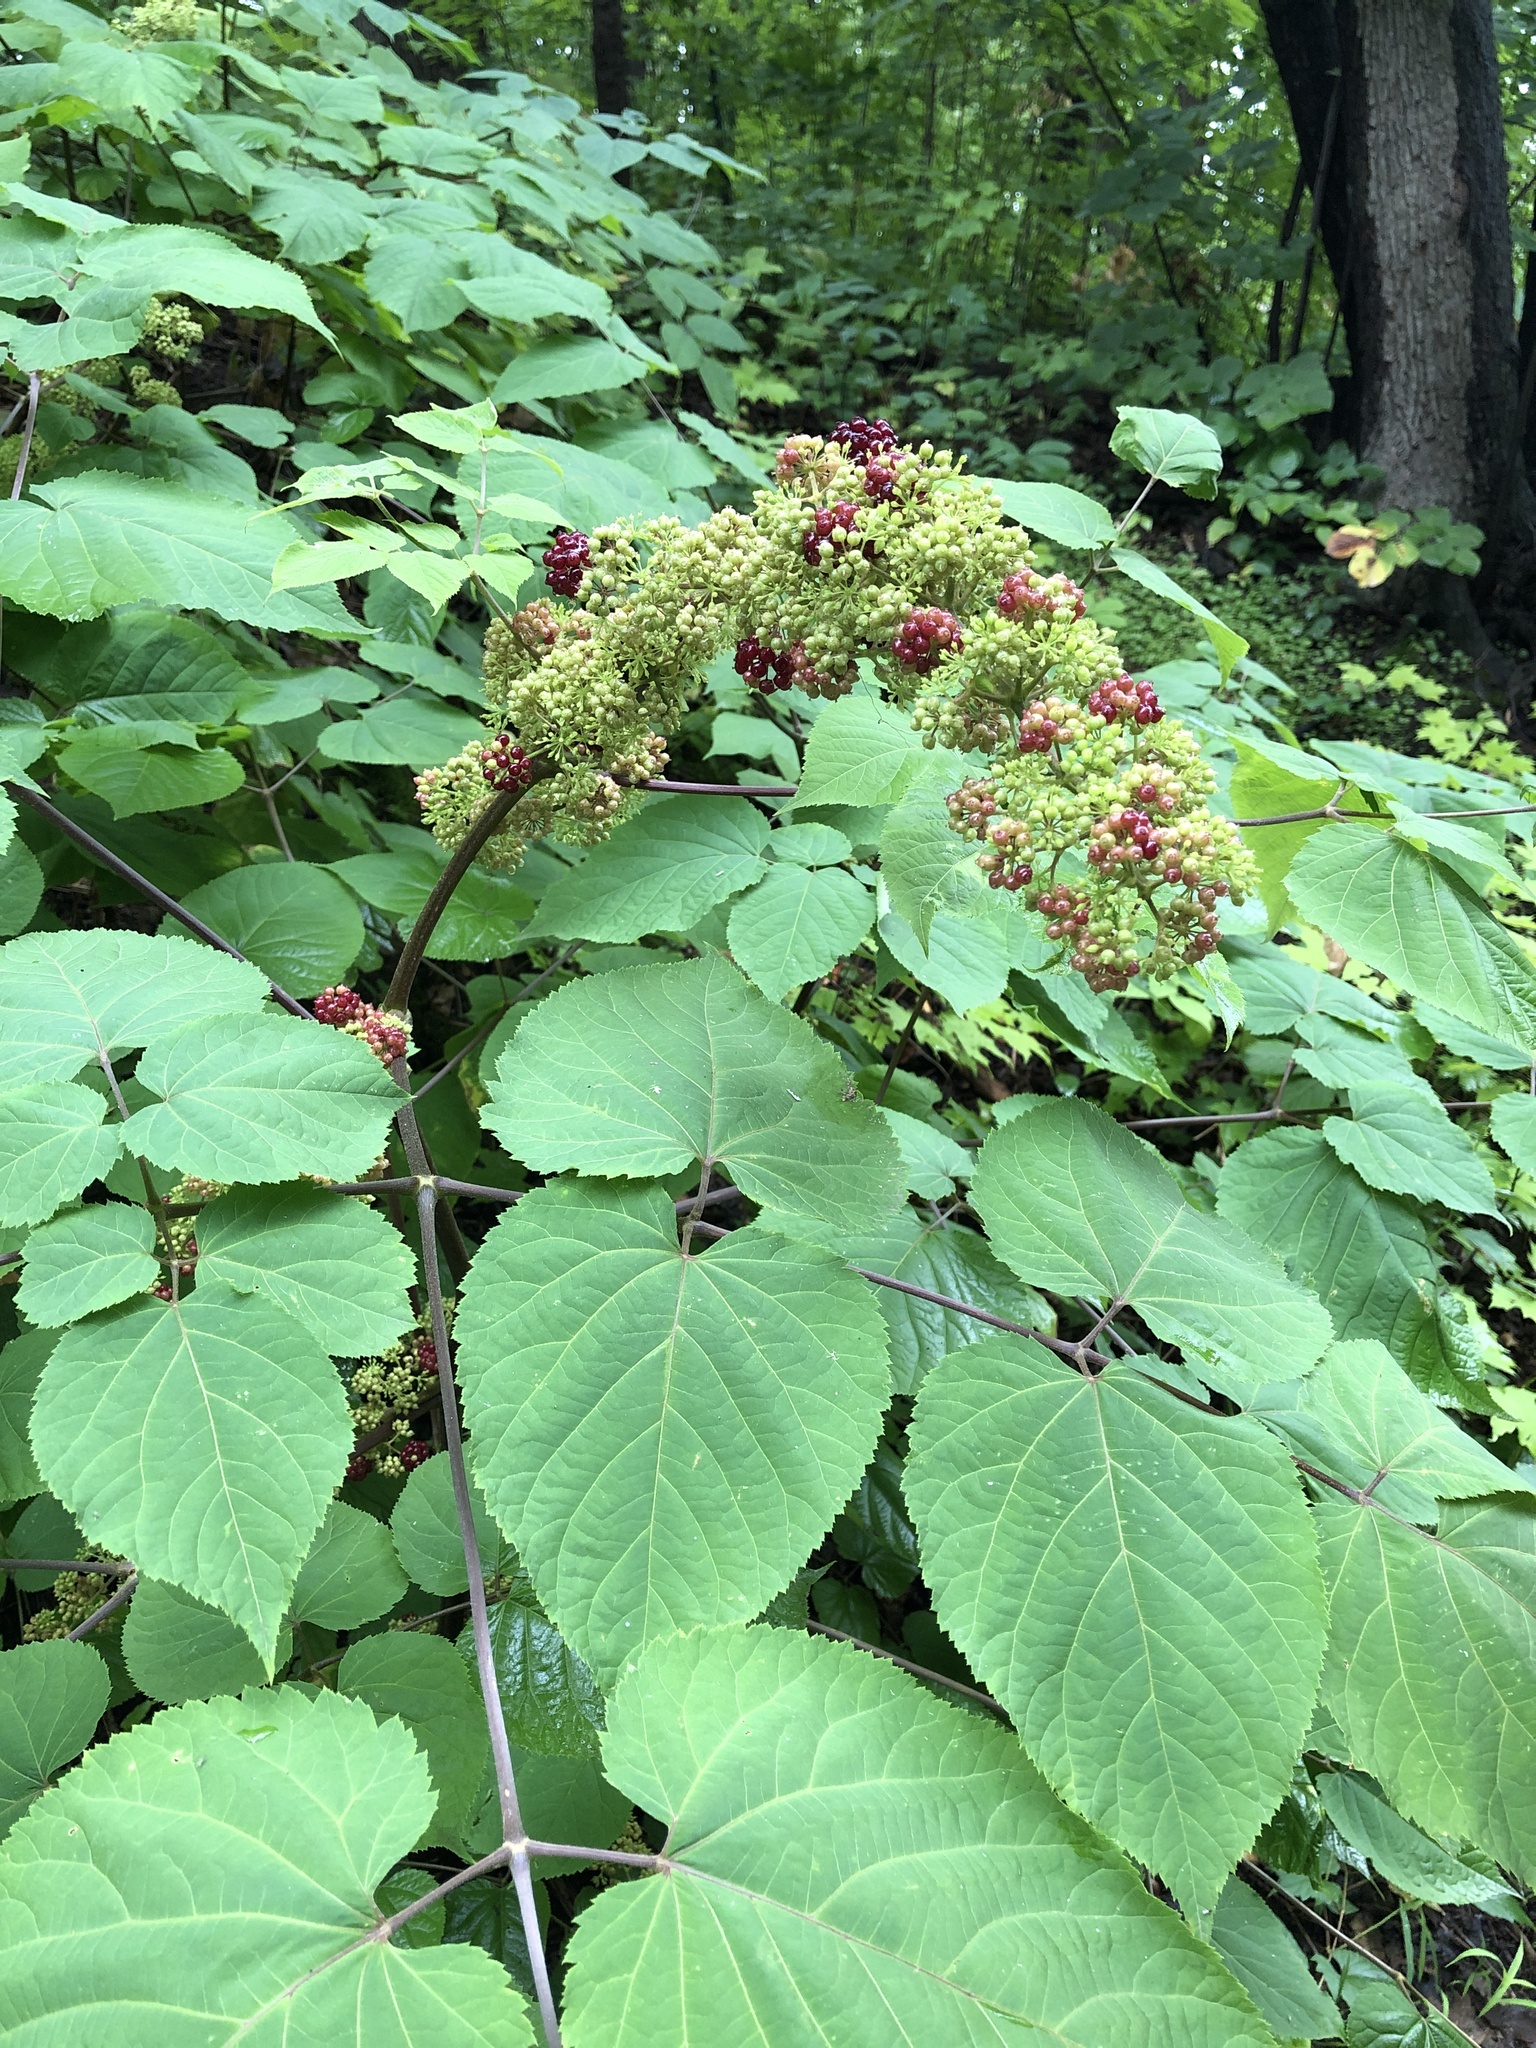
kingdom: Plantae
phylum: Tracheophyta
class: Magnoliopsida
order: Apiales
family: Araliaceae
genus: Aralia
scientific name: Aralia racemosa
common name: American-spikenard
